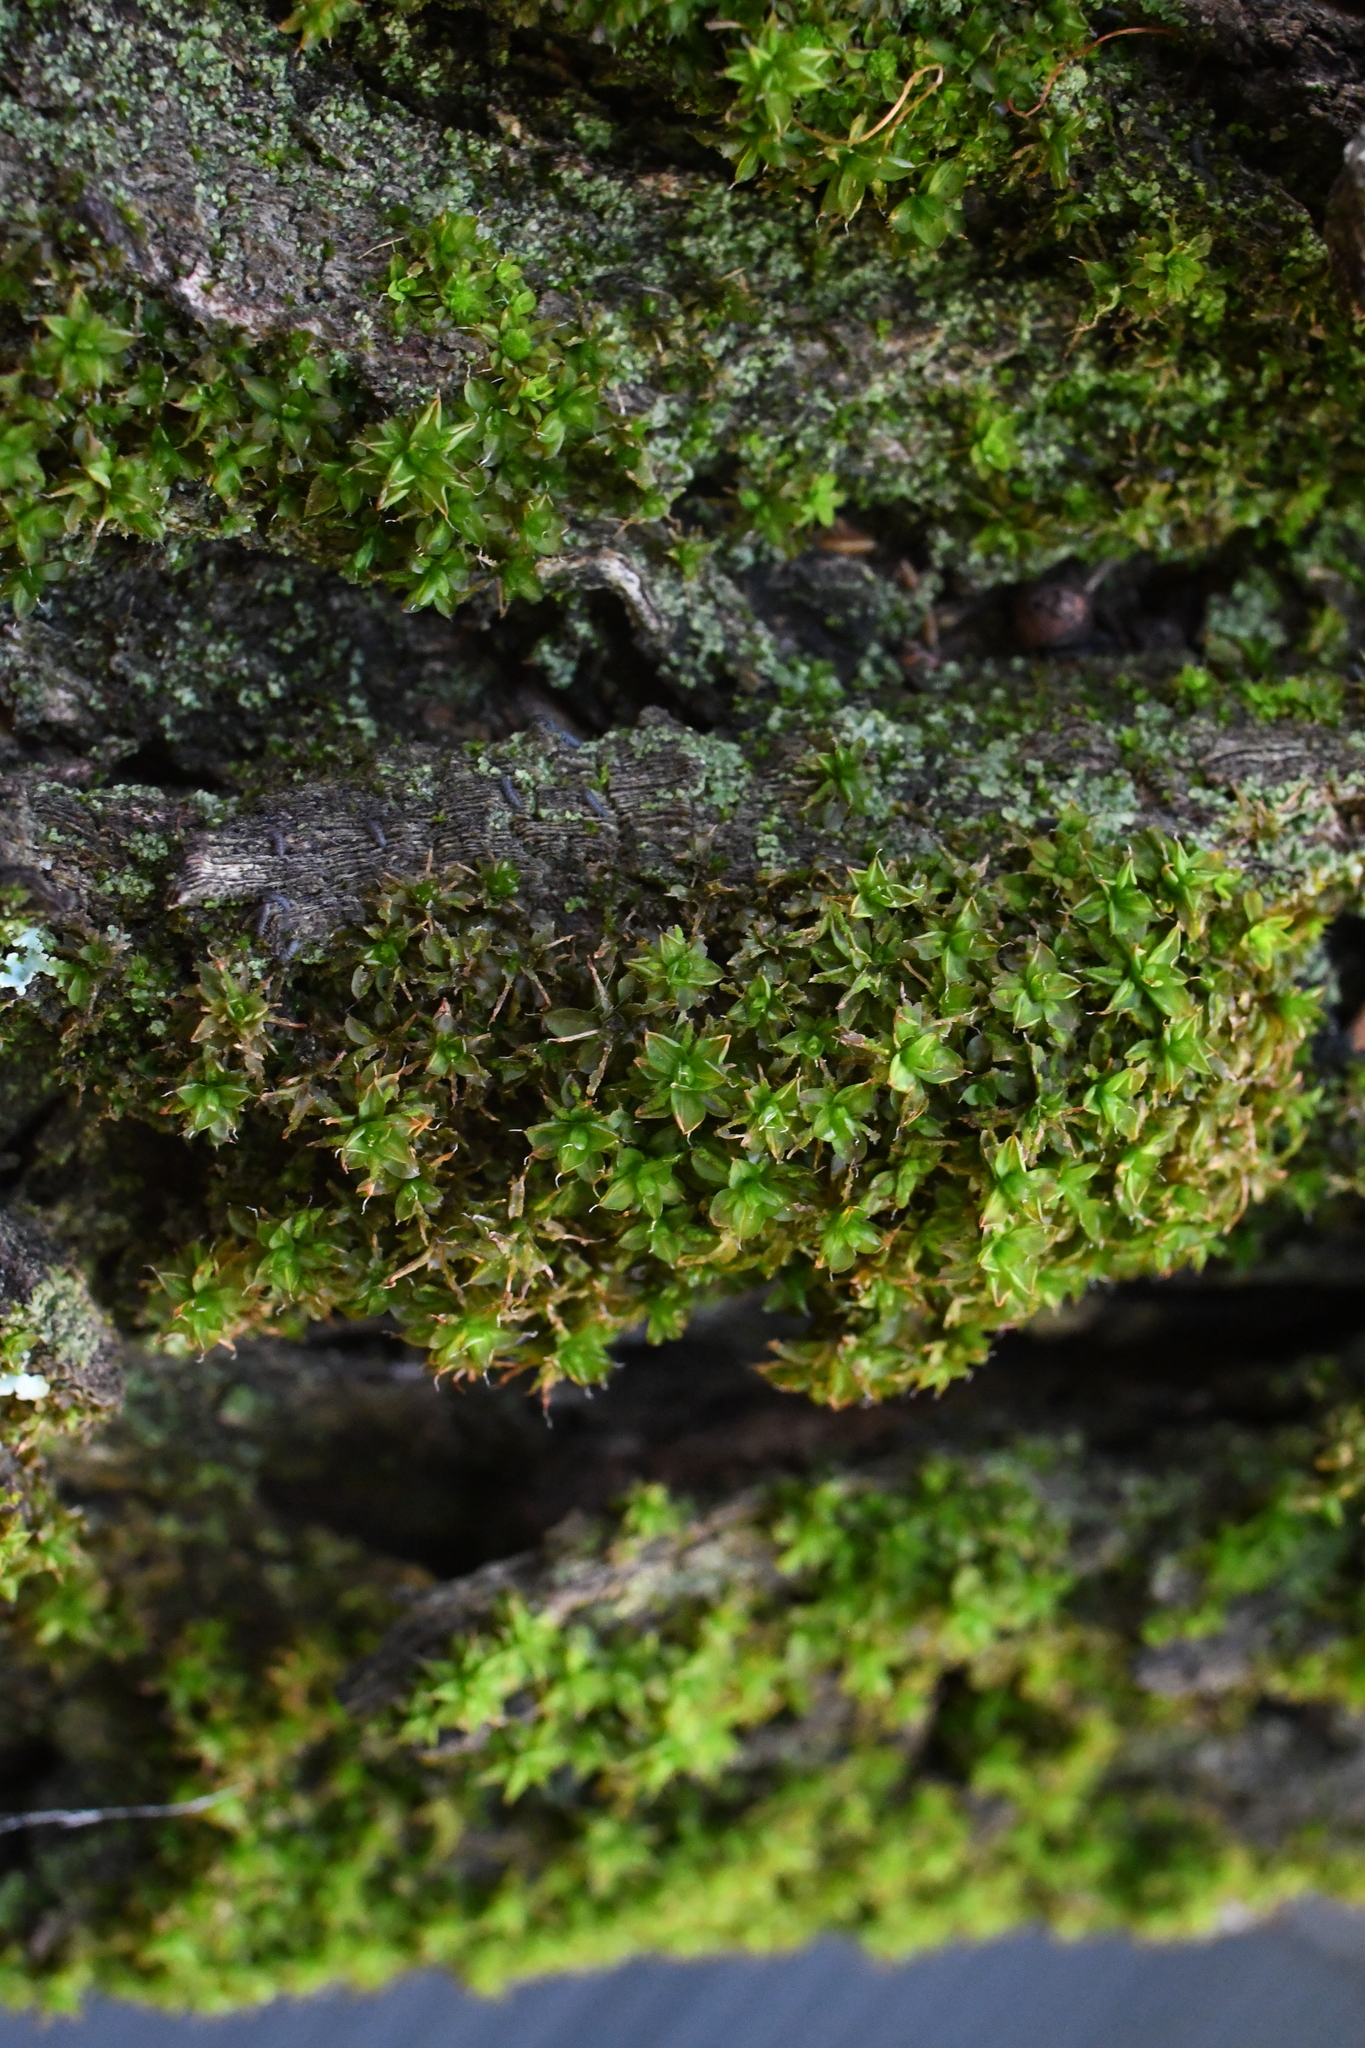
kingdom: Plantae
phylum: Bryophyta
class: Bryopsida
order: Pottiales
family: Pottiaceae
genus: Syntrichia
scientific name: Syntrichia papillosa
